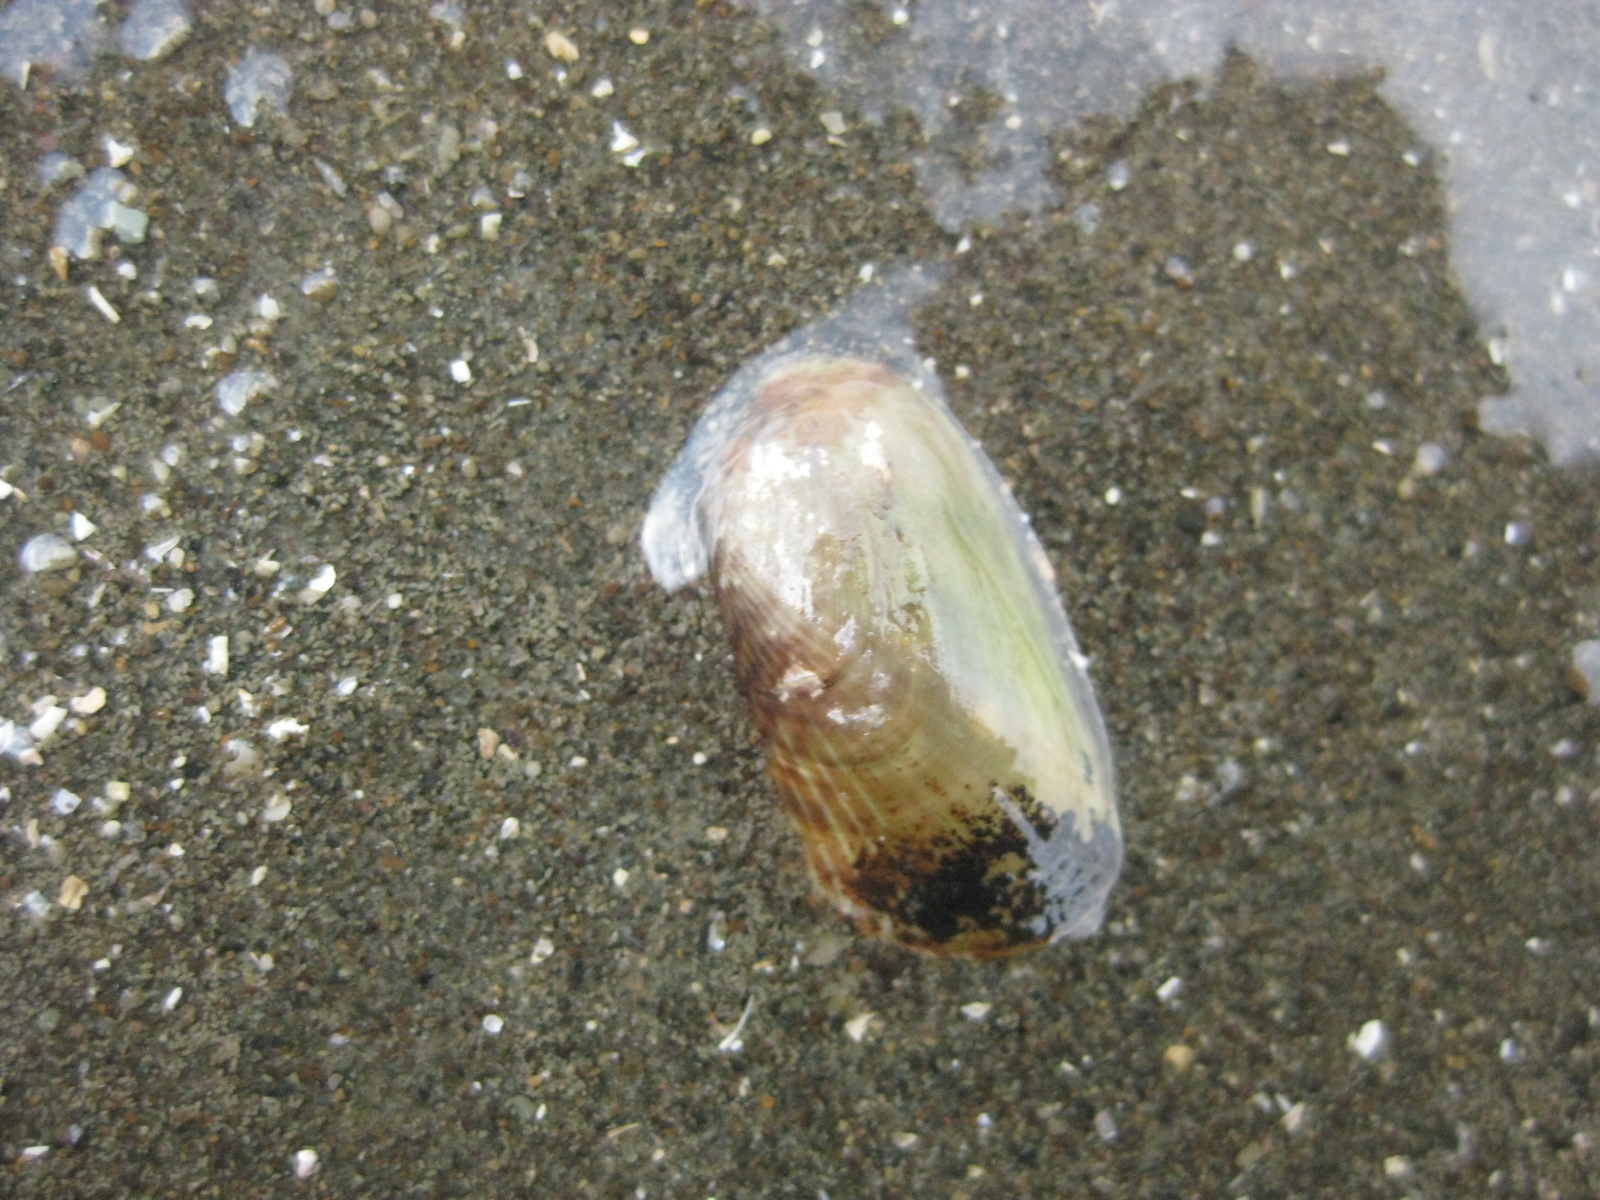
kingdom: Animalia
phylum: Mollusca
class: Bivalvia
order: Mytilida
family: Mytilidae
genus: Arcuatula
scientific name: Arcuatula senhousia
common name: Asian mussel
